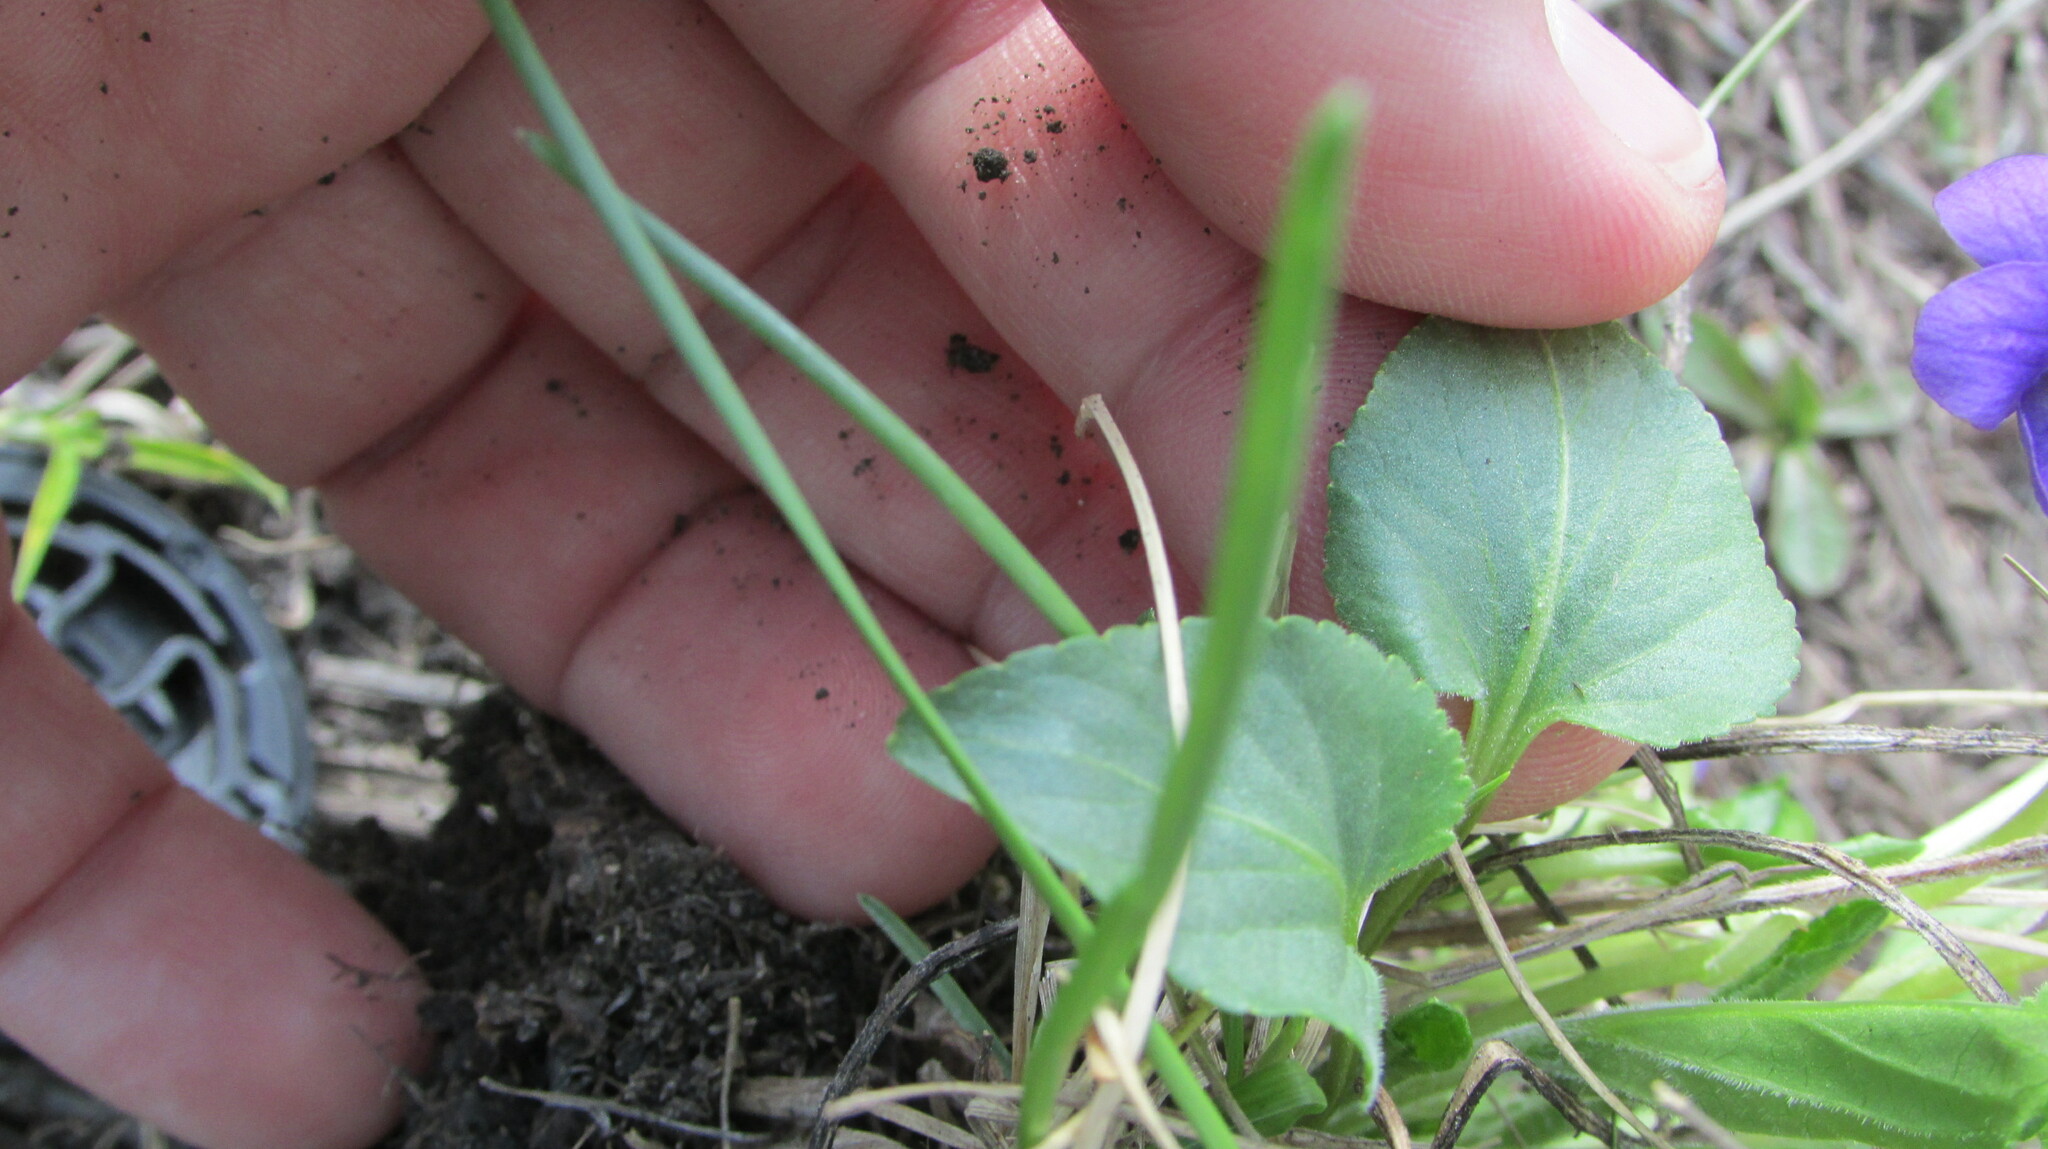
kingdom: Plantae
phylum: Tracheophyta
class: Magnoliopsida
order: Malpighiales
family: Violaceae
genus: Viola
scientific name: Viola ambigua
